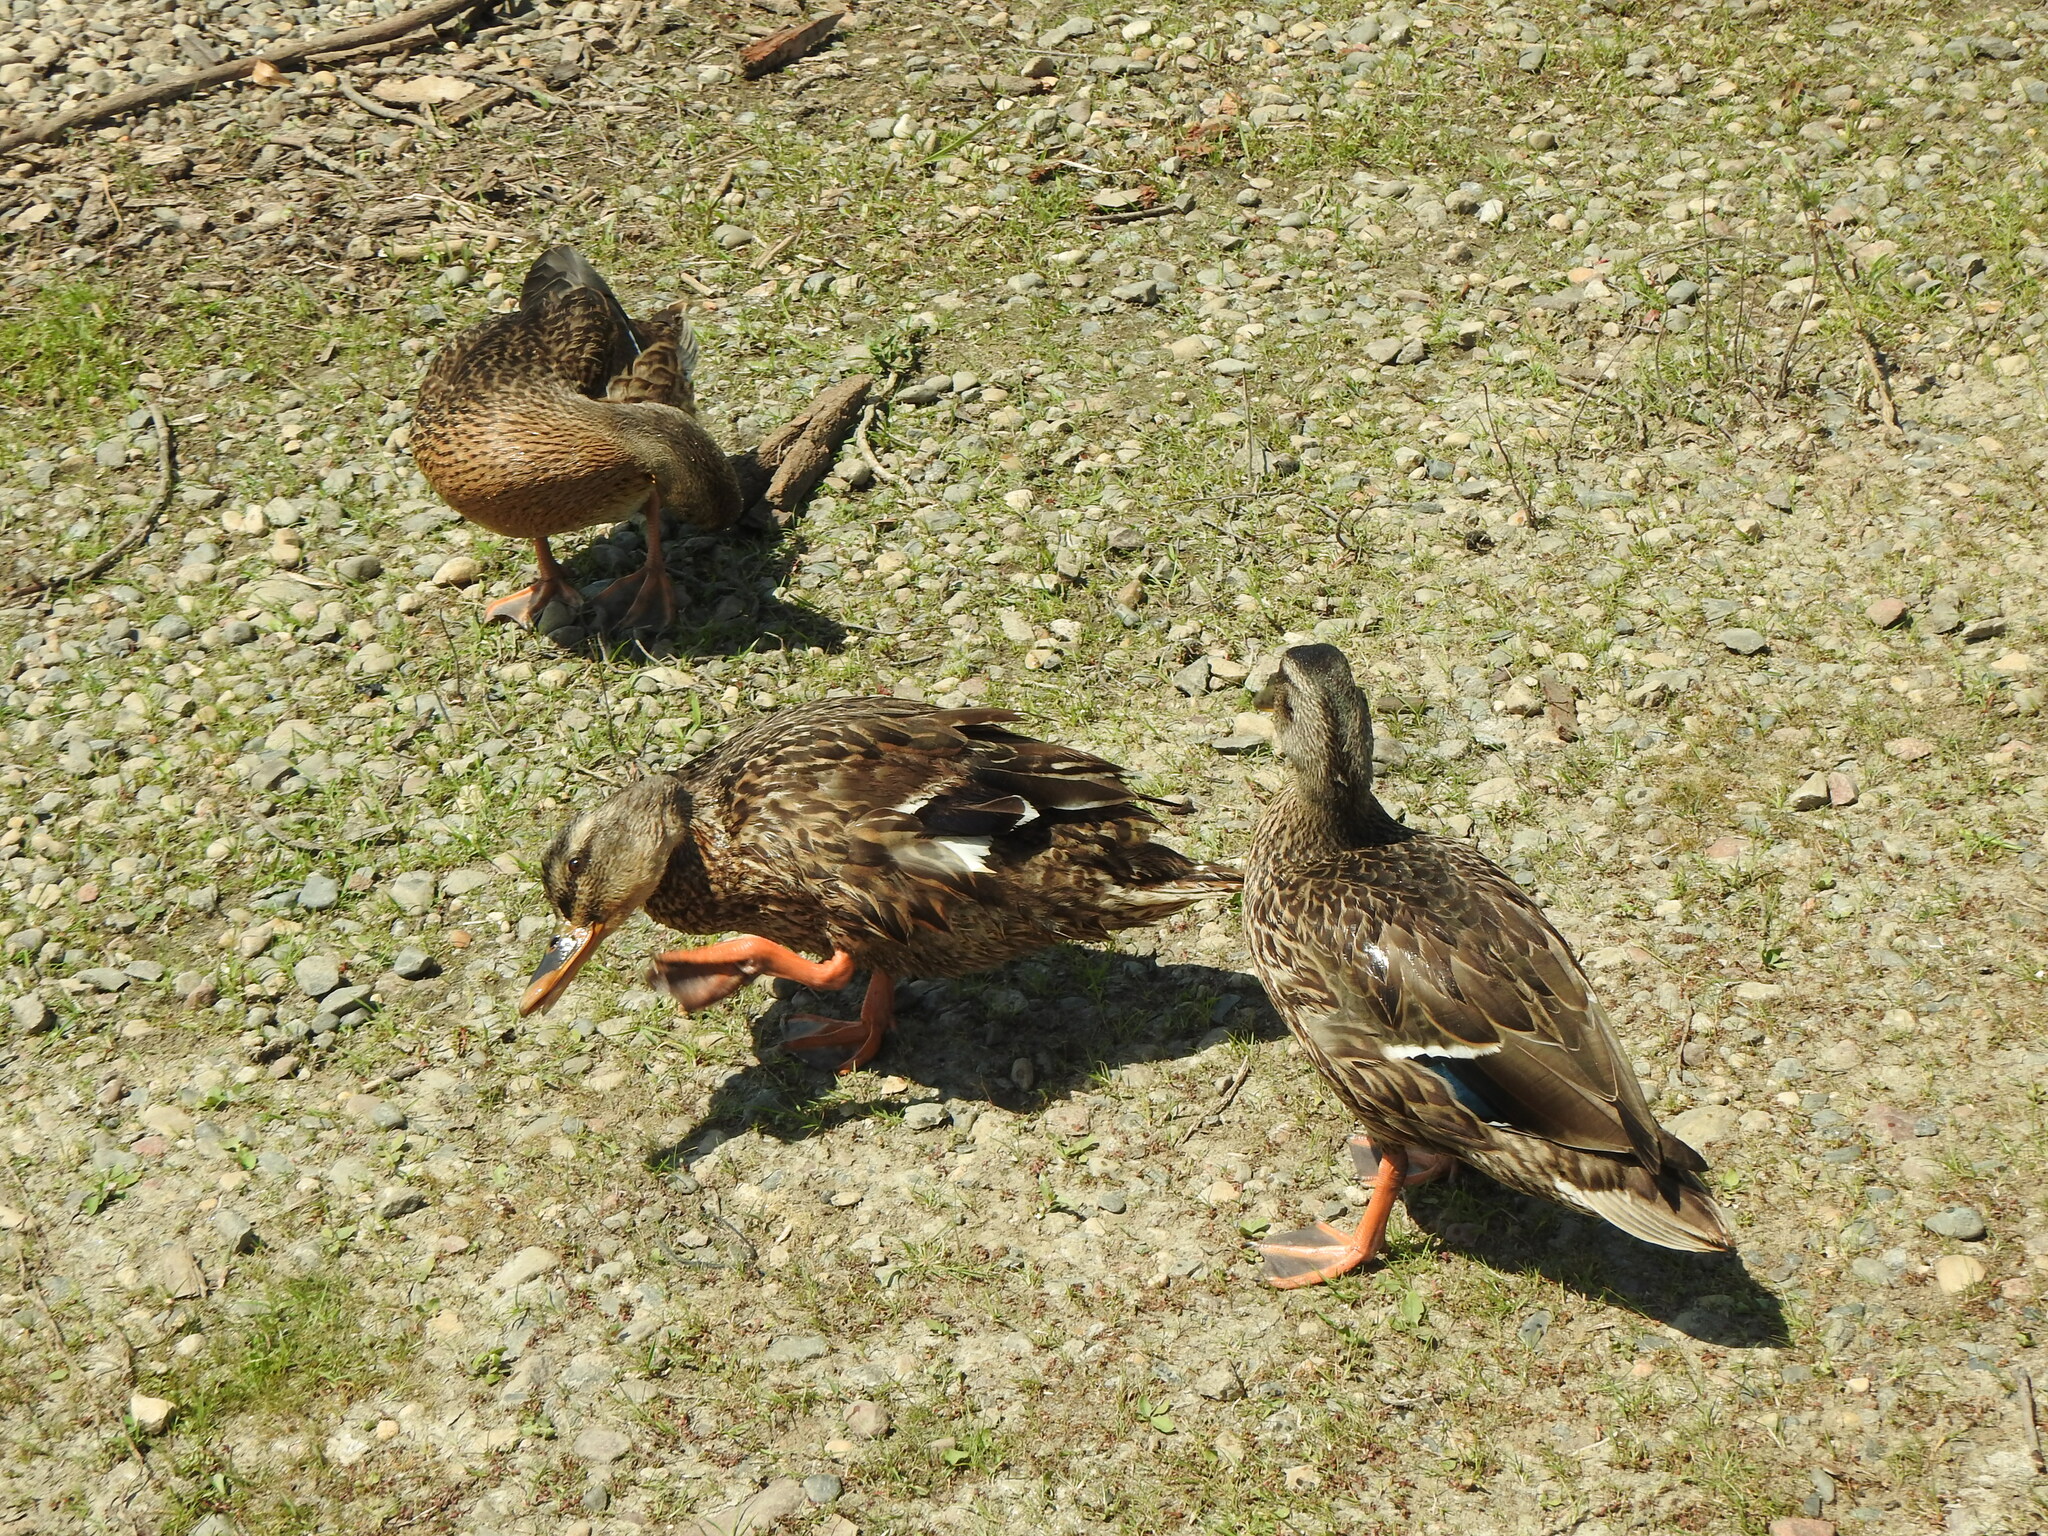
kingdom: Animalia
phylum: Chordata
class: Aves
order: Anseriformes
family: Anatidae
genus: Anas
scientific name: Anas platyrhynchos
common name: Mallard
